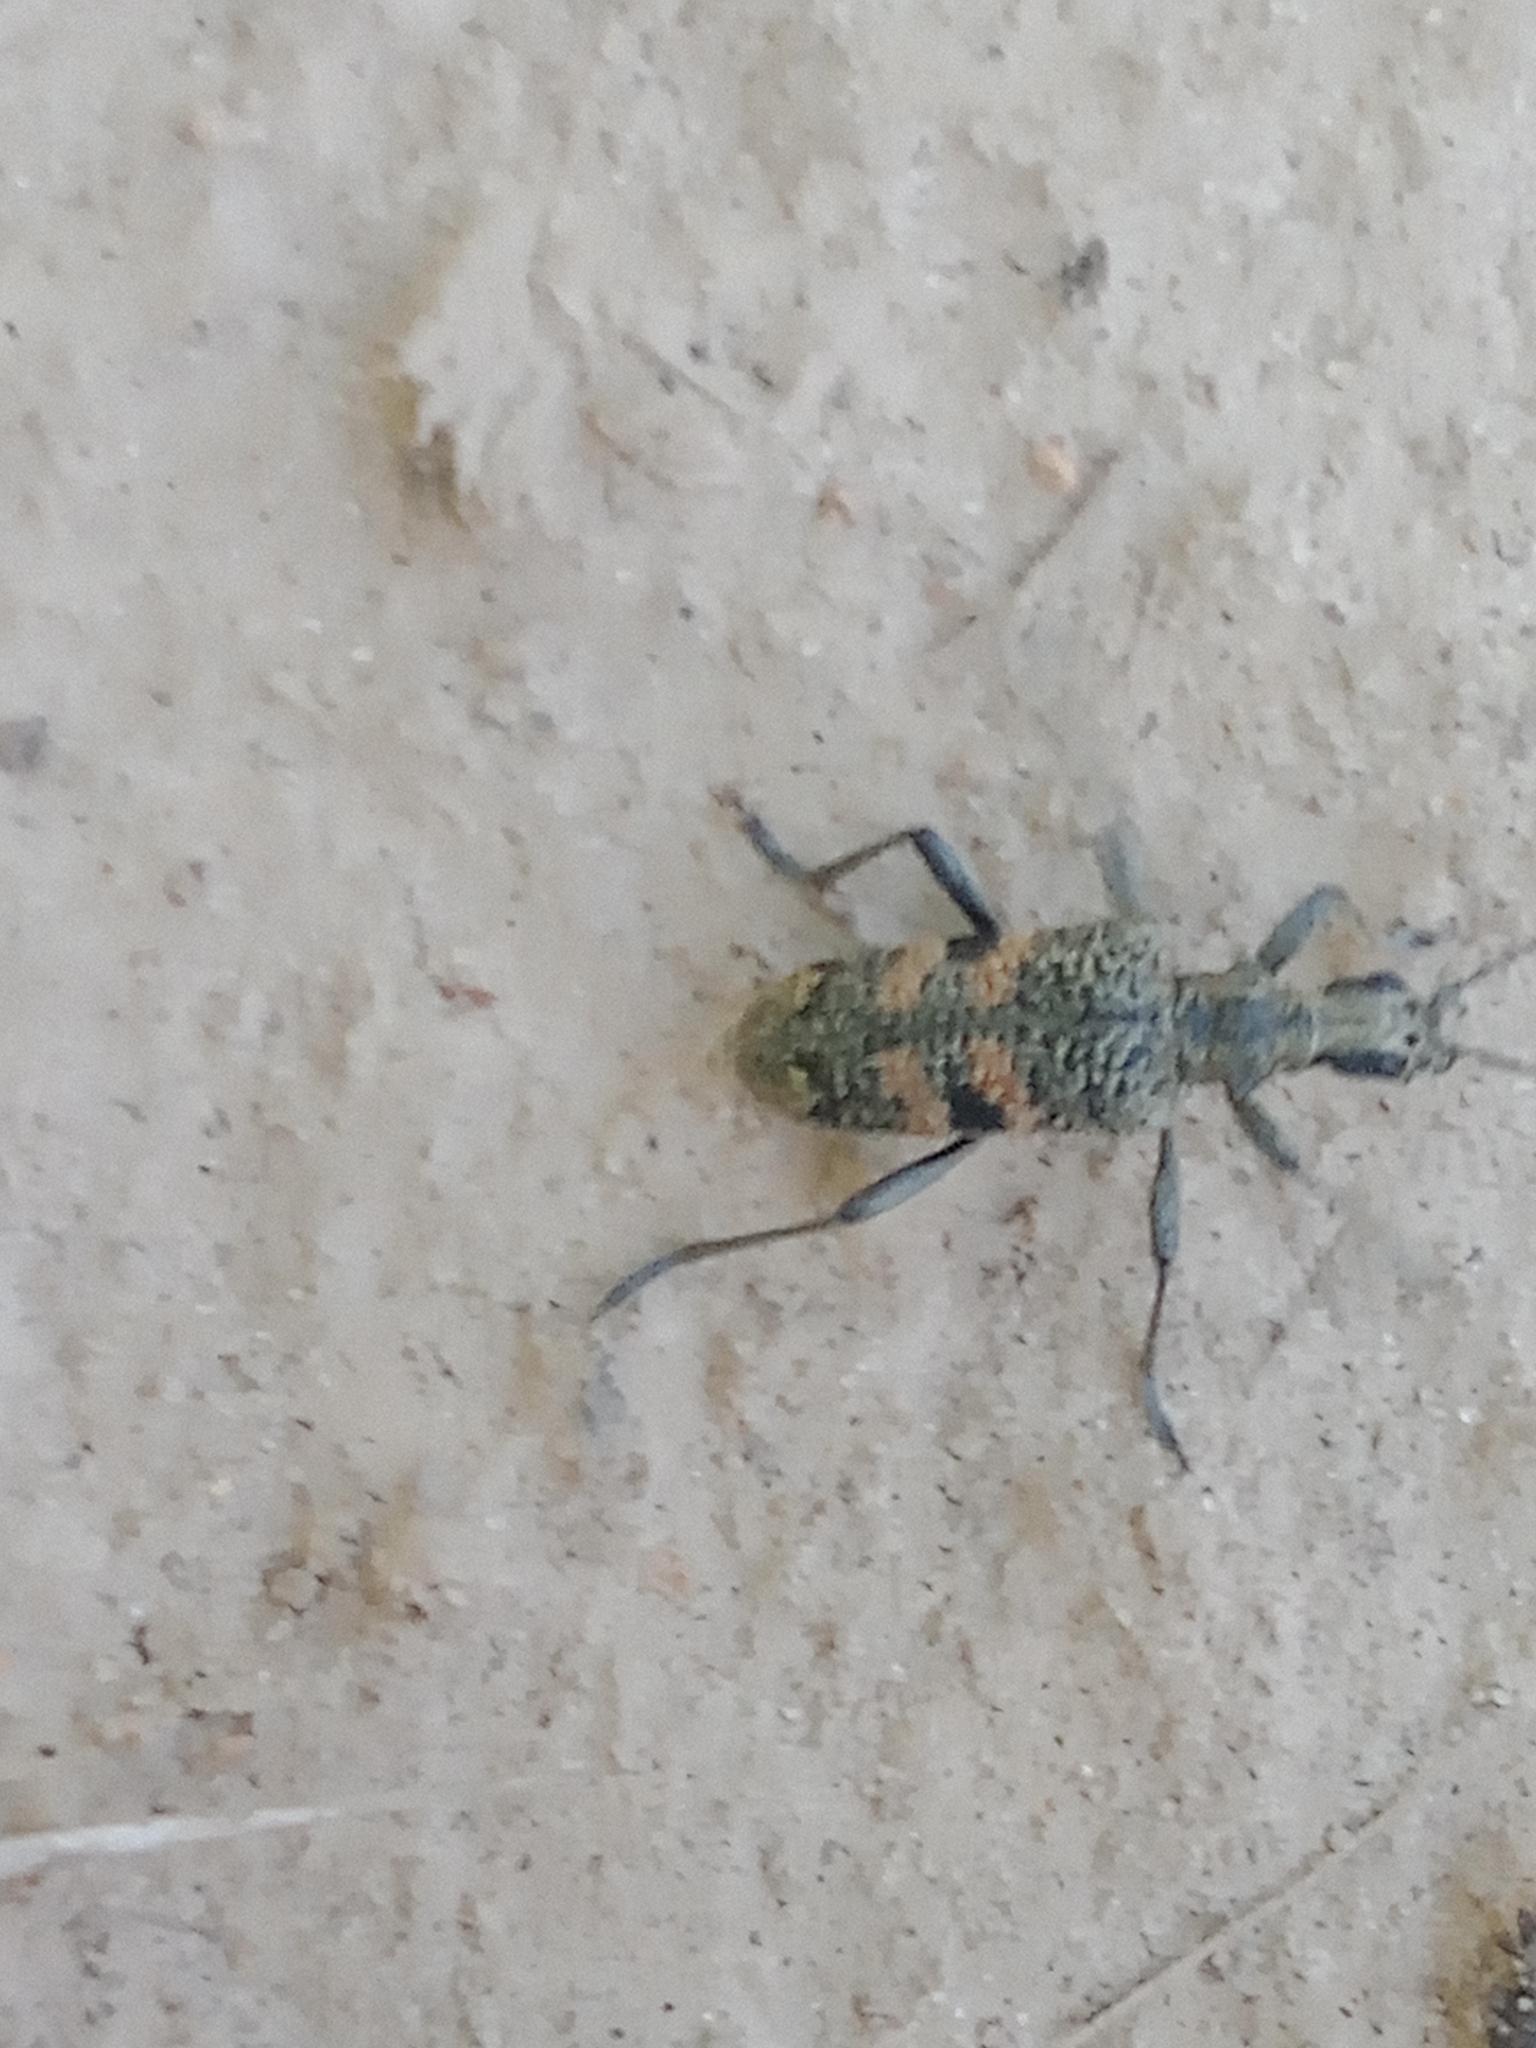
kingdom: Animalia
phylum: Arthropoda
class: Insecta
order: Coleoptera
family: Cerambycidae
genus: Rhagium
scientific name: Rhagium mordax
